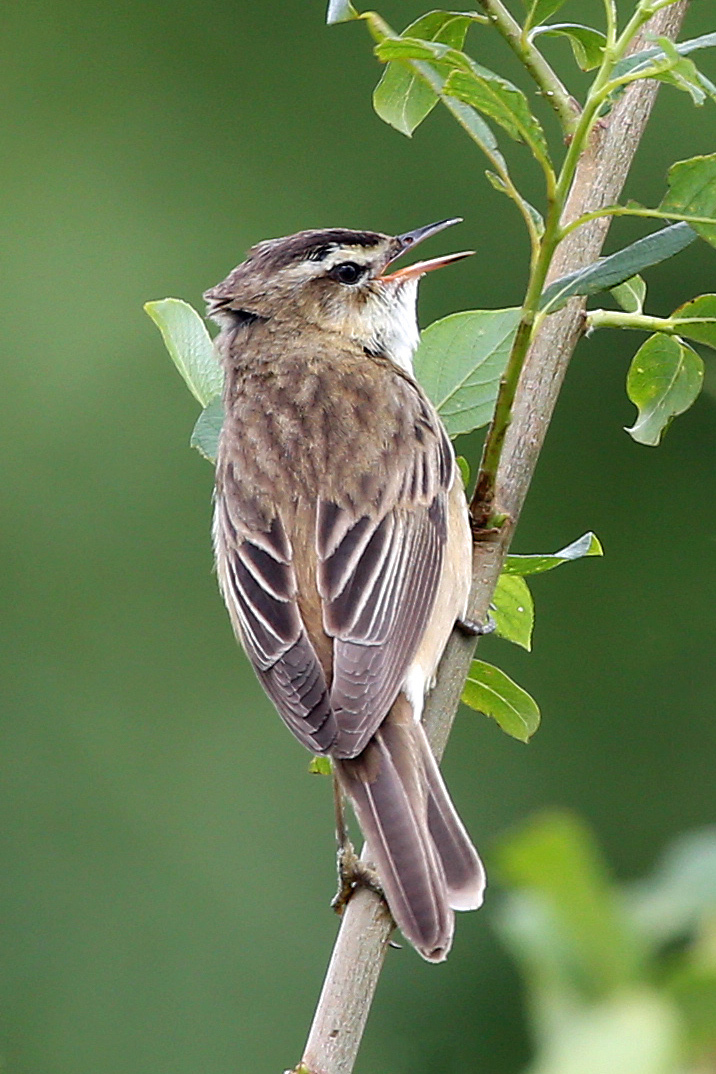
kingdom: Animalia
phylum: Chordata
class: Aves
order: Passeriformes
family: Acrocephalidae
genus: Acrocephalus
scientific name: Acrocephalus schoenobaenus
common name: Sedge warbler
